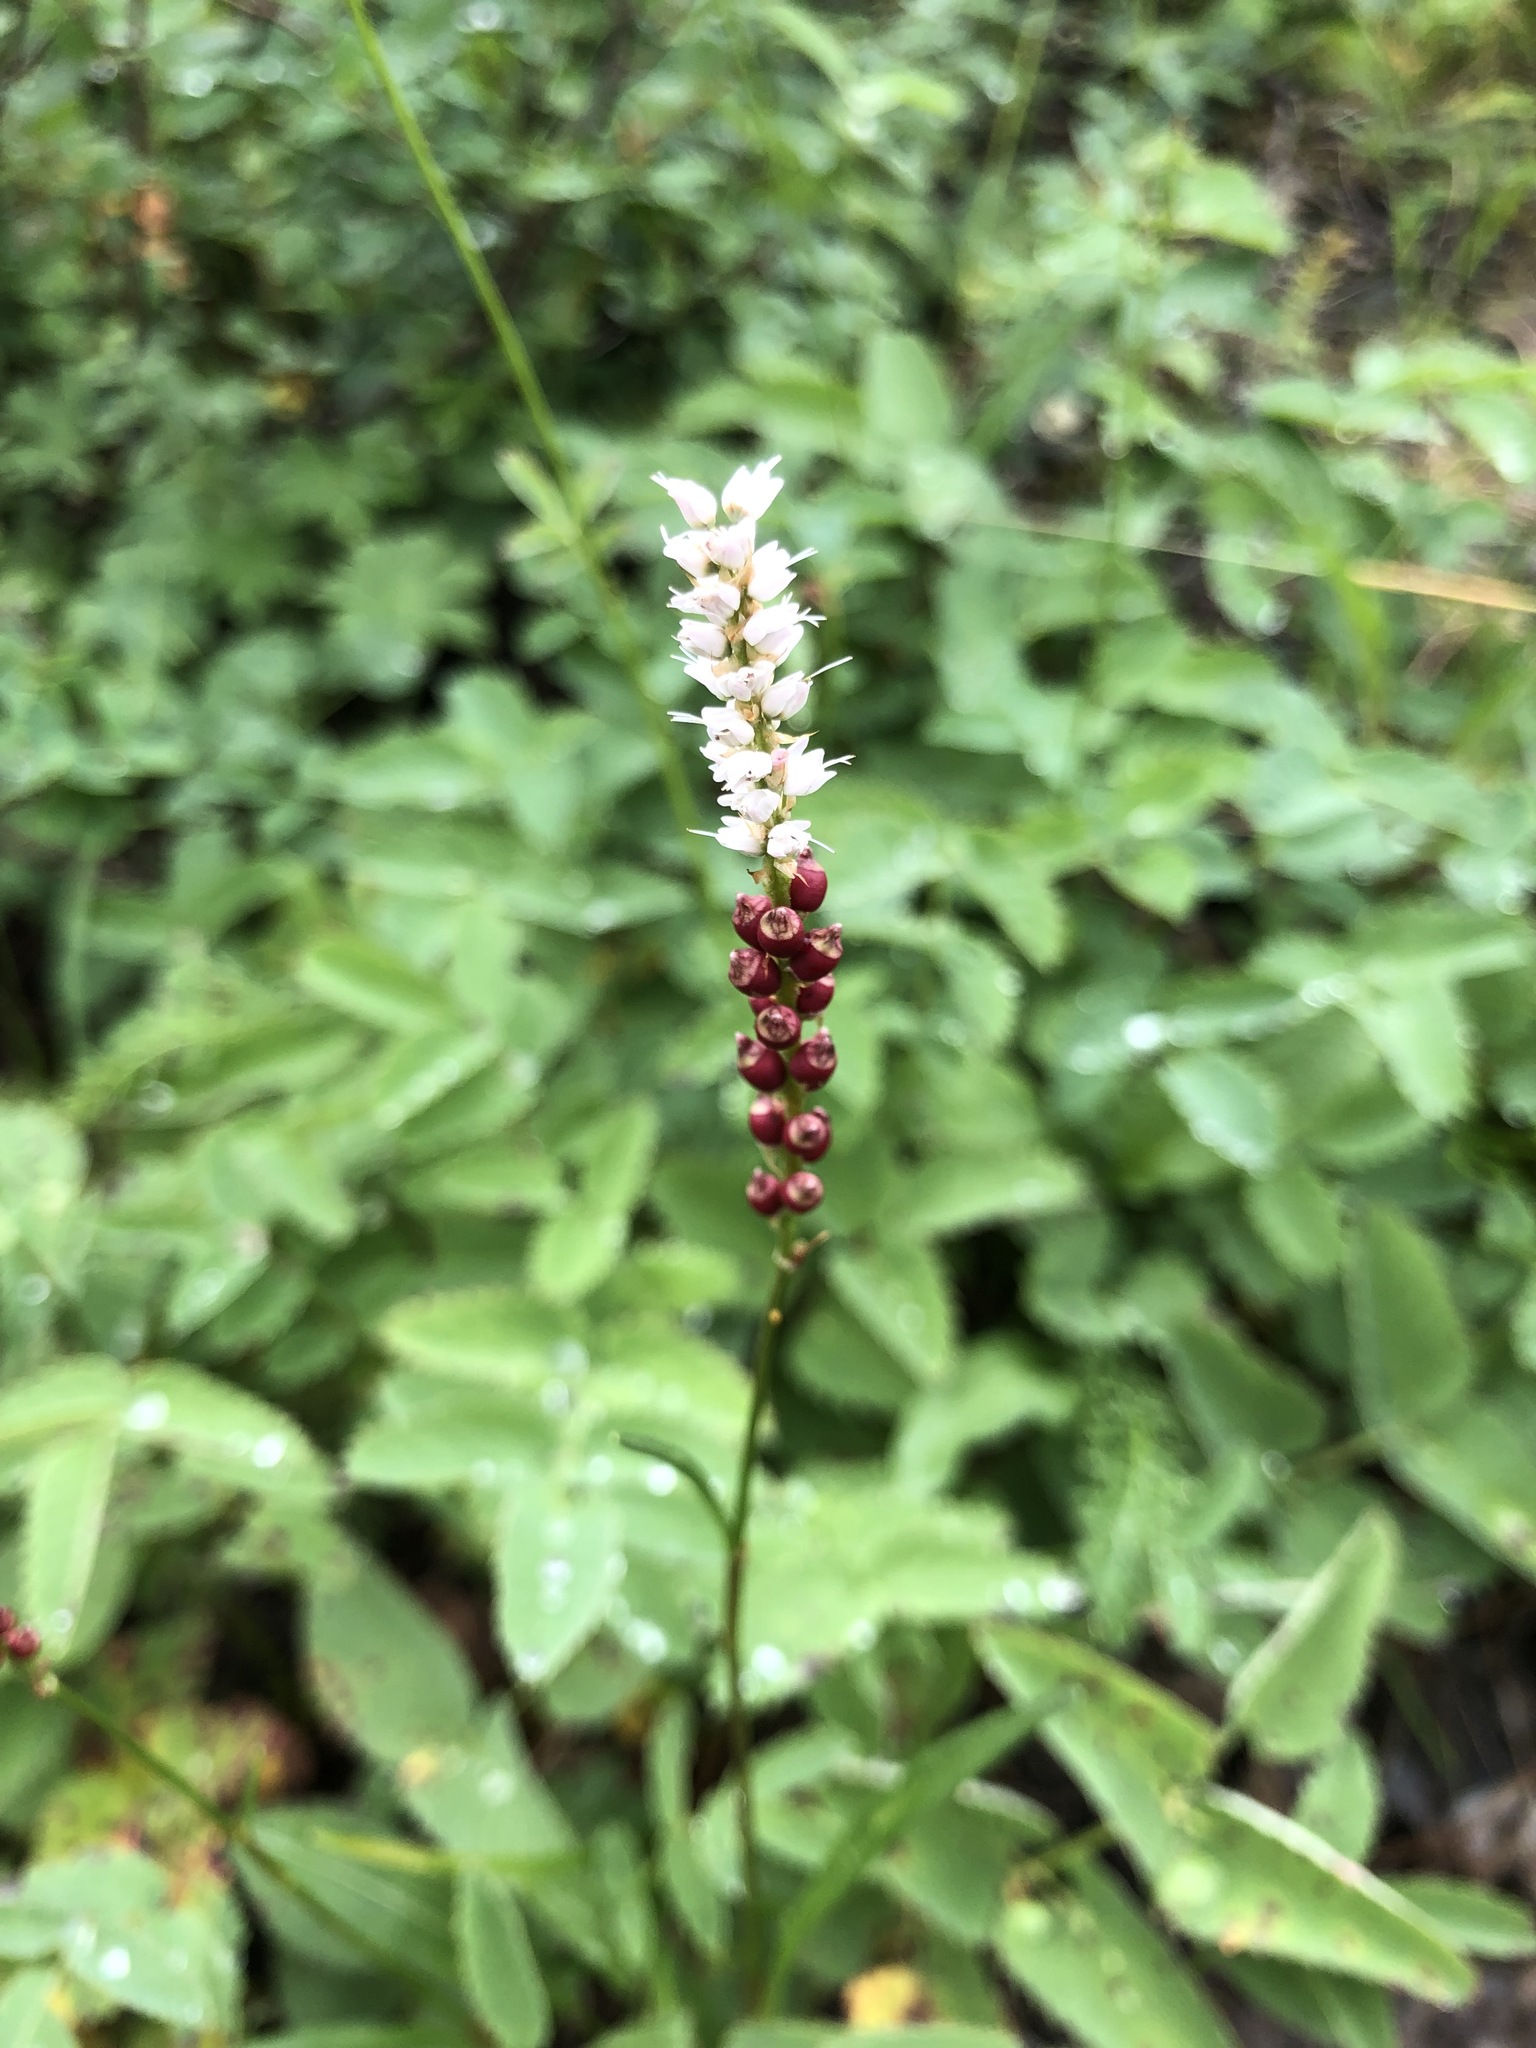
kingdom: Plantae
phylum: Tracheophyta
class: Magnoliopsida
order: Caryophyllales
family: Polygonaceae
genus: Bistorta
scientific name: Bistorta vivipara
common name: Alpine bistort
